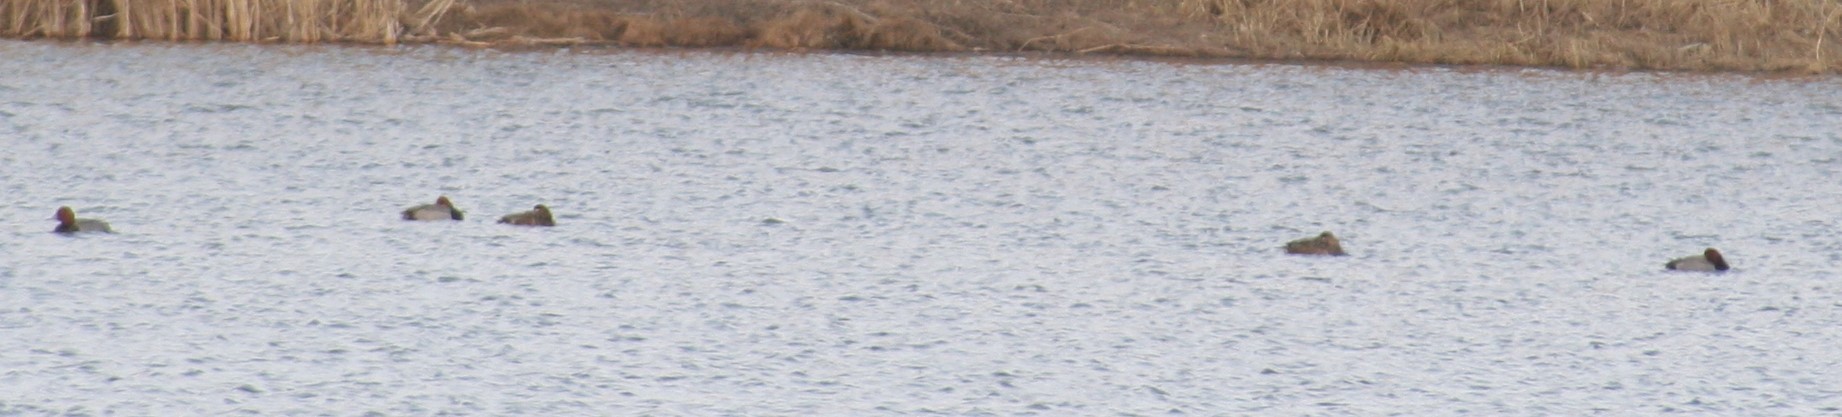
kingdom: Animalia
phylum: Chordata
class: Aves
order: Anseriformes
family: Anatidae
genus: Aythya
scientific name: Aythya americana
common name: Redhead
